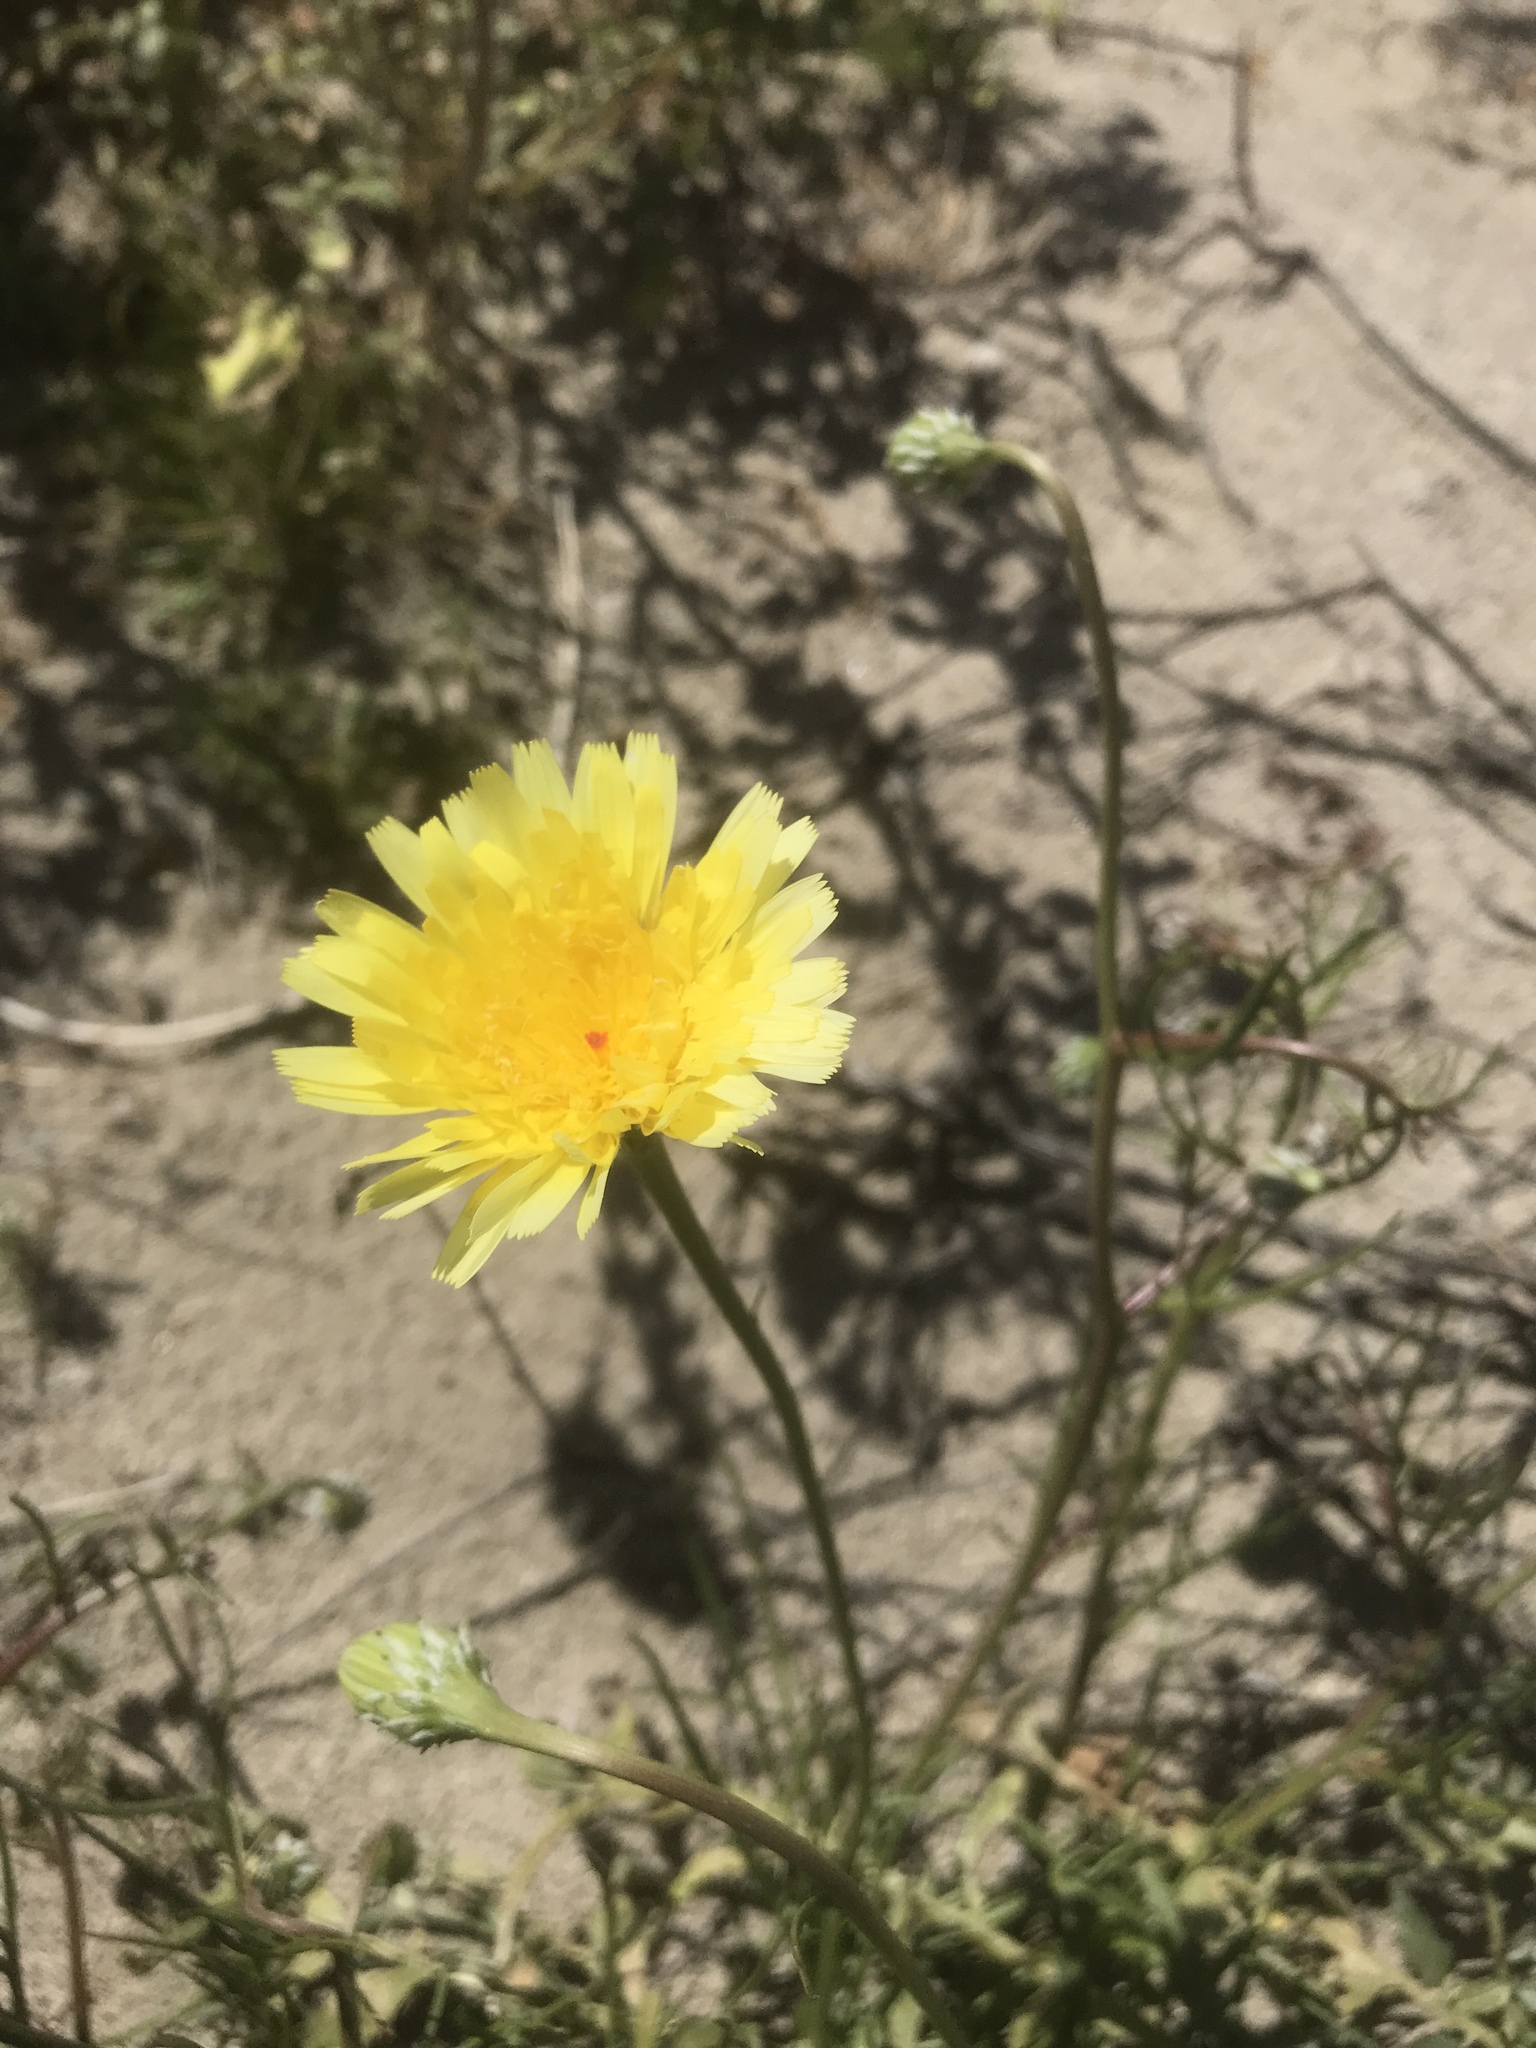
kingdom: Plantae
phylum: Tracheophyta
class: Magnoliopsida
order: Asterales
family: Asteraceae
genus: Malacothrix
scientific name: Malacothrix glabrata
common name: Smooth desert-dandelion
